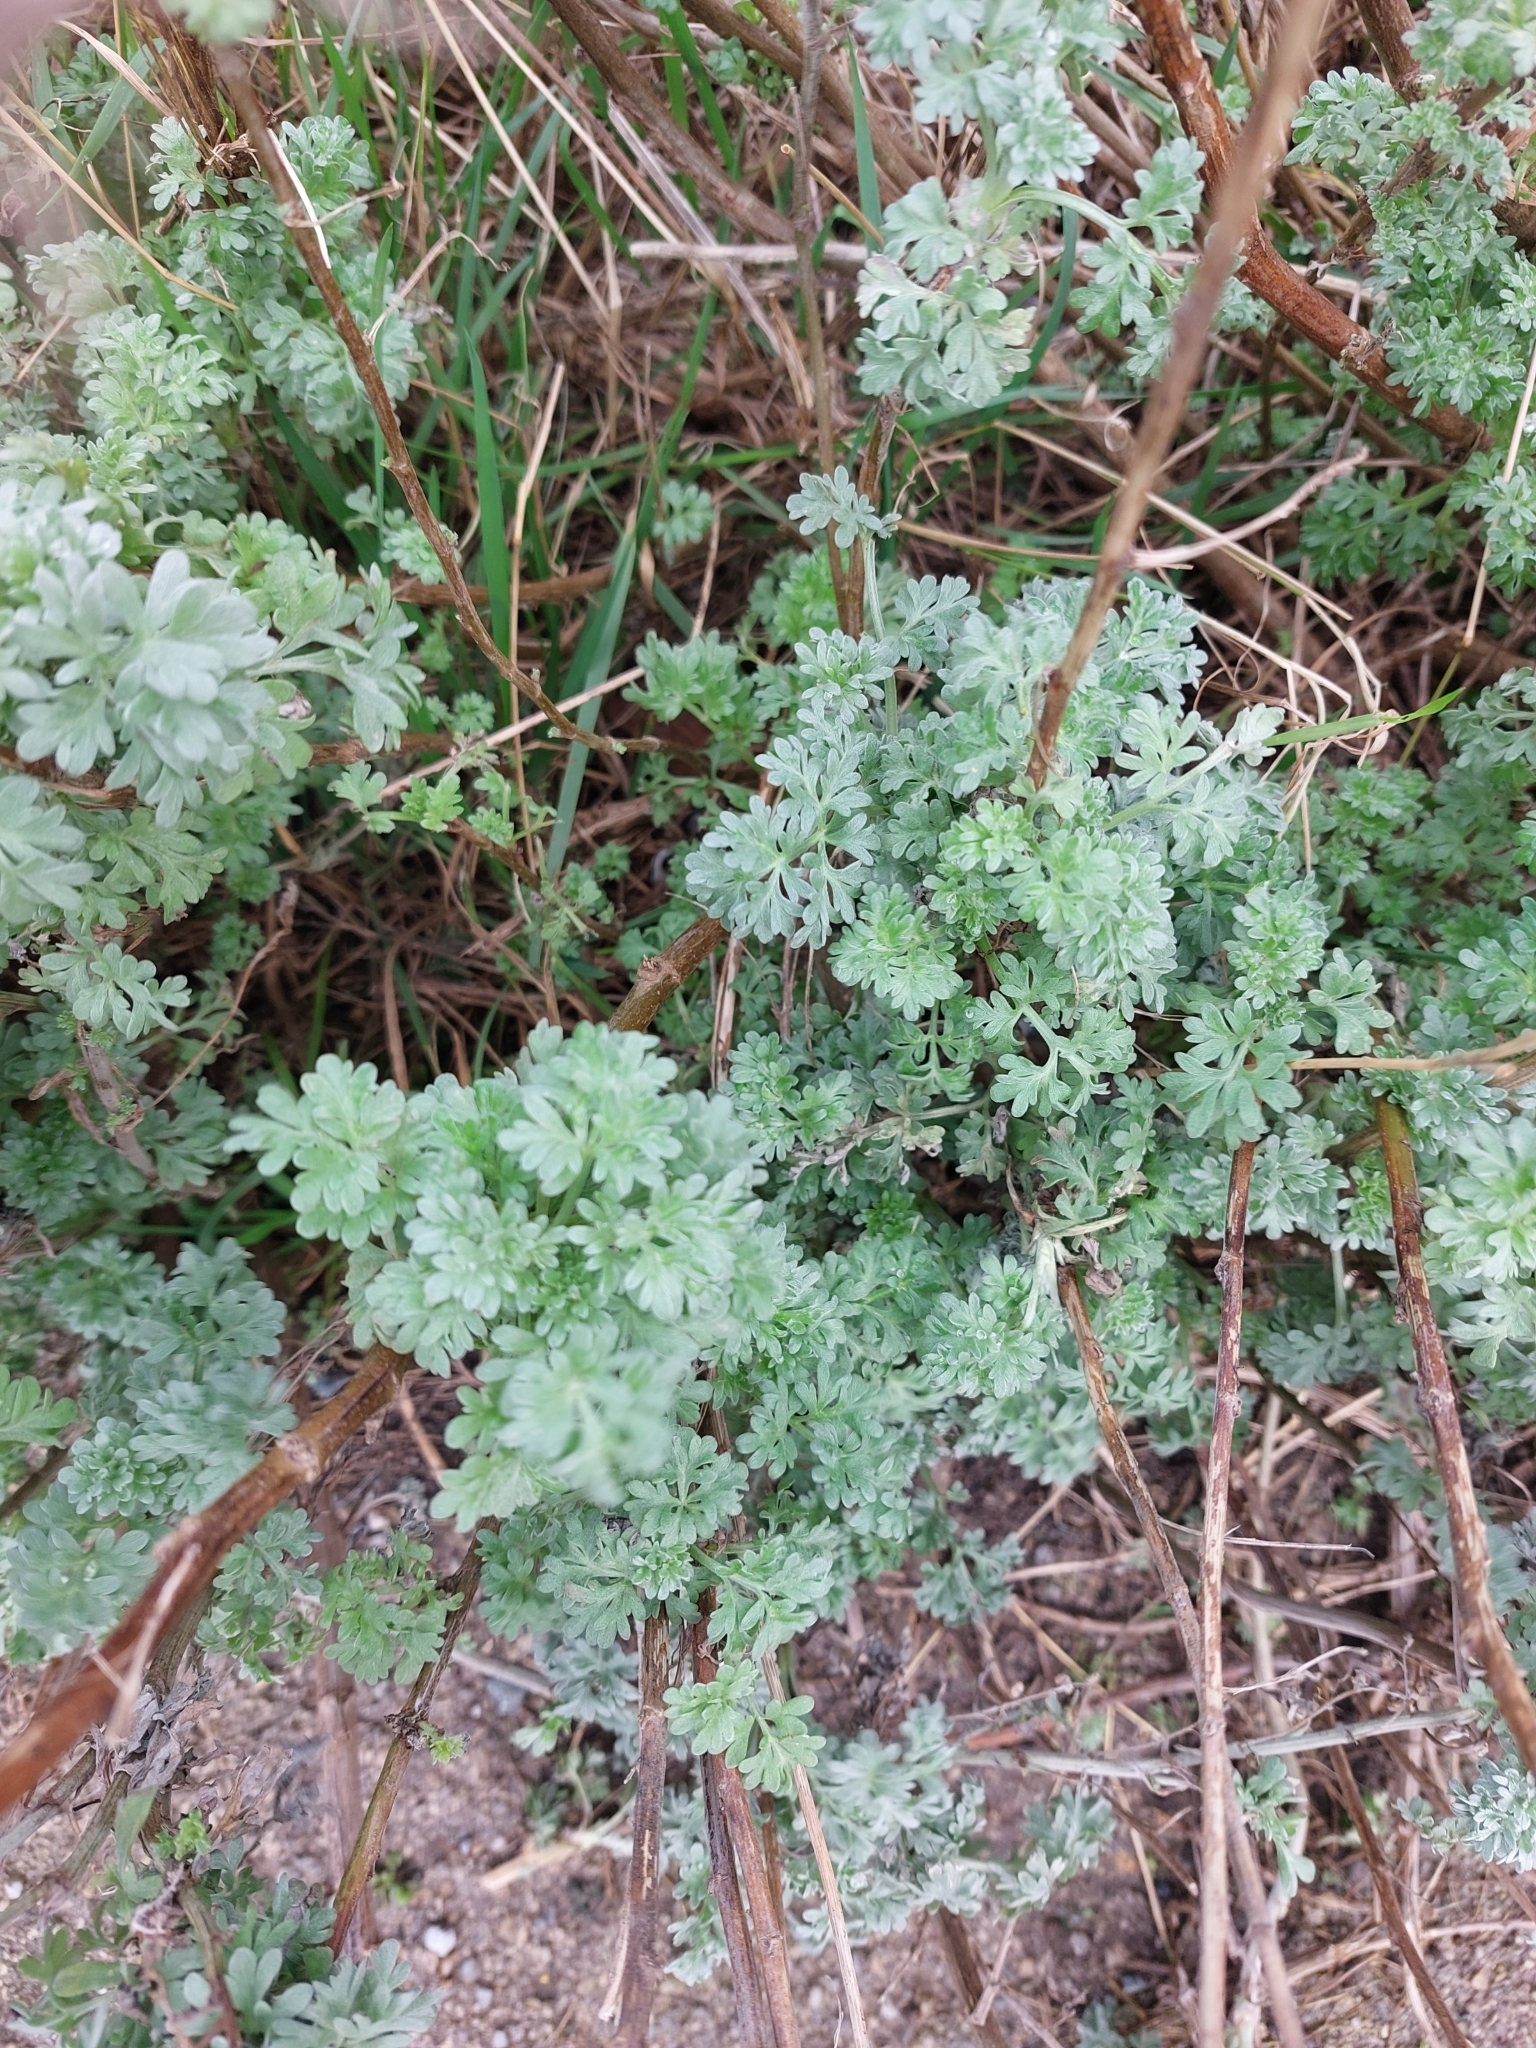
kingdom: Plantae
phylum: Tracheophyta
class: Magnoliopsida
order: Asterales
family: Asteraceae
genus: Artemisia
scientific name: Artemisia absinthium
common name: Wormwood
